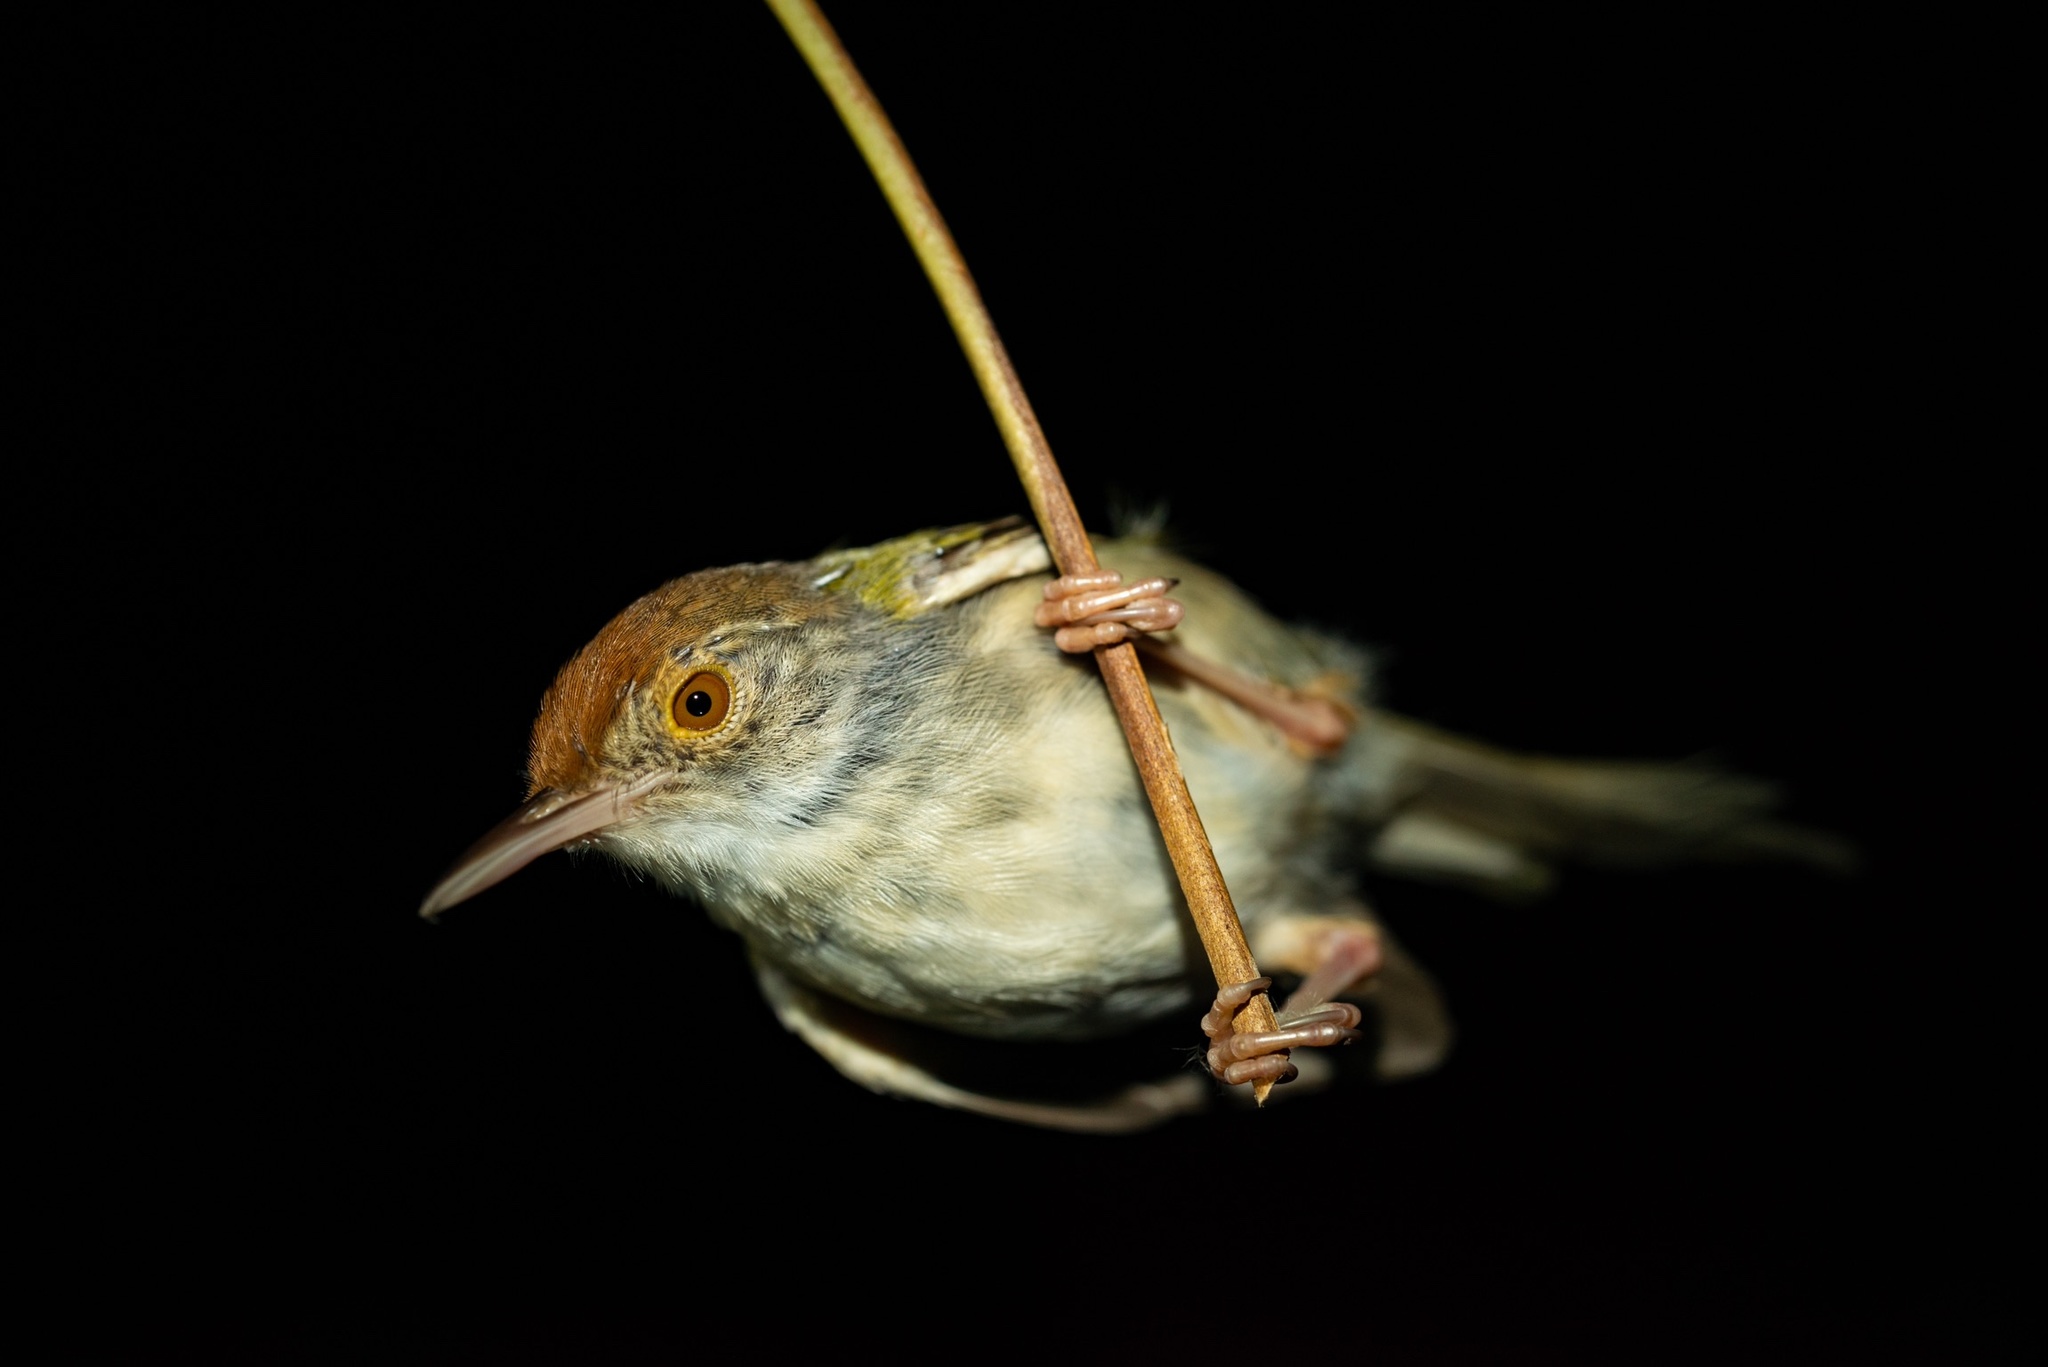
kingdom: Animalia
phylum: Chordata
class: Aves
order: Passeriformes
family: Cisticolidae
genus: Orthotomus
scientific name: Orthotomus sutorius
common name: Common tailorbird
